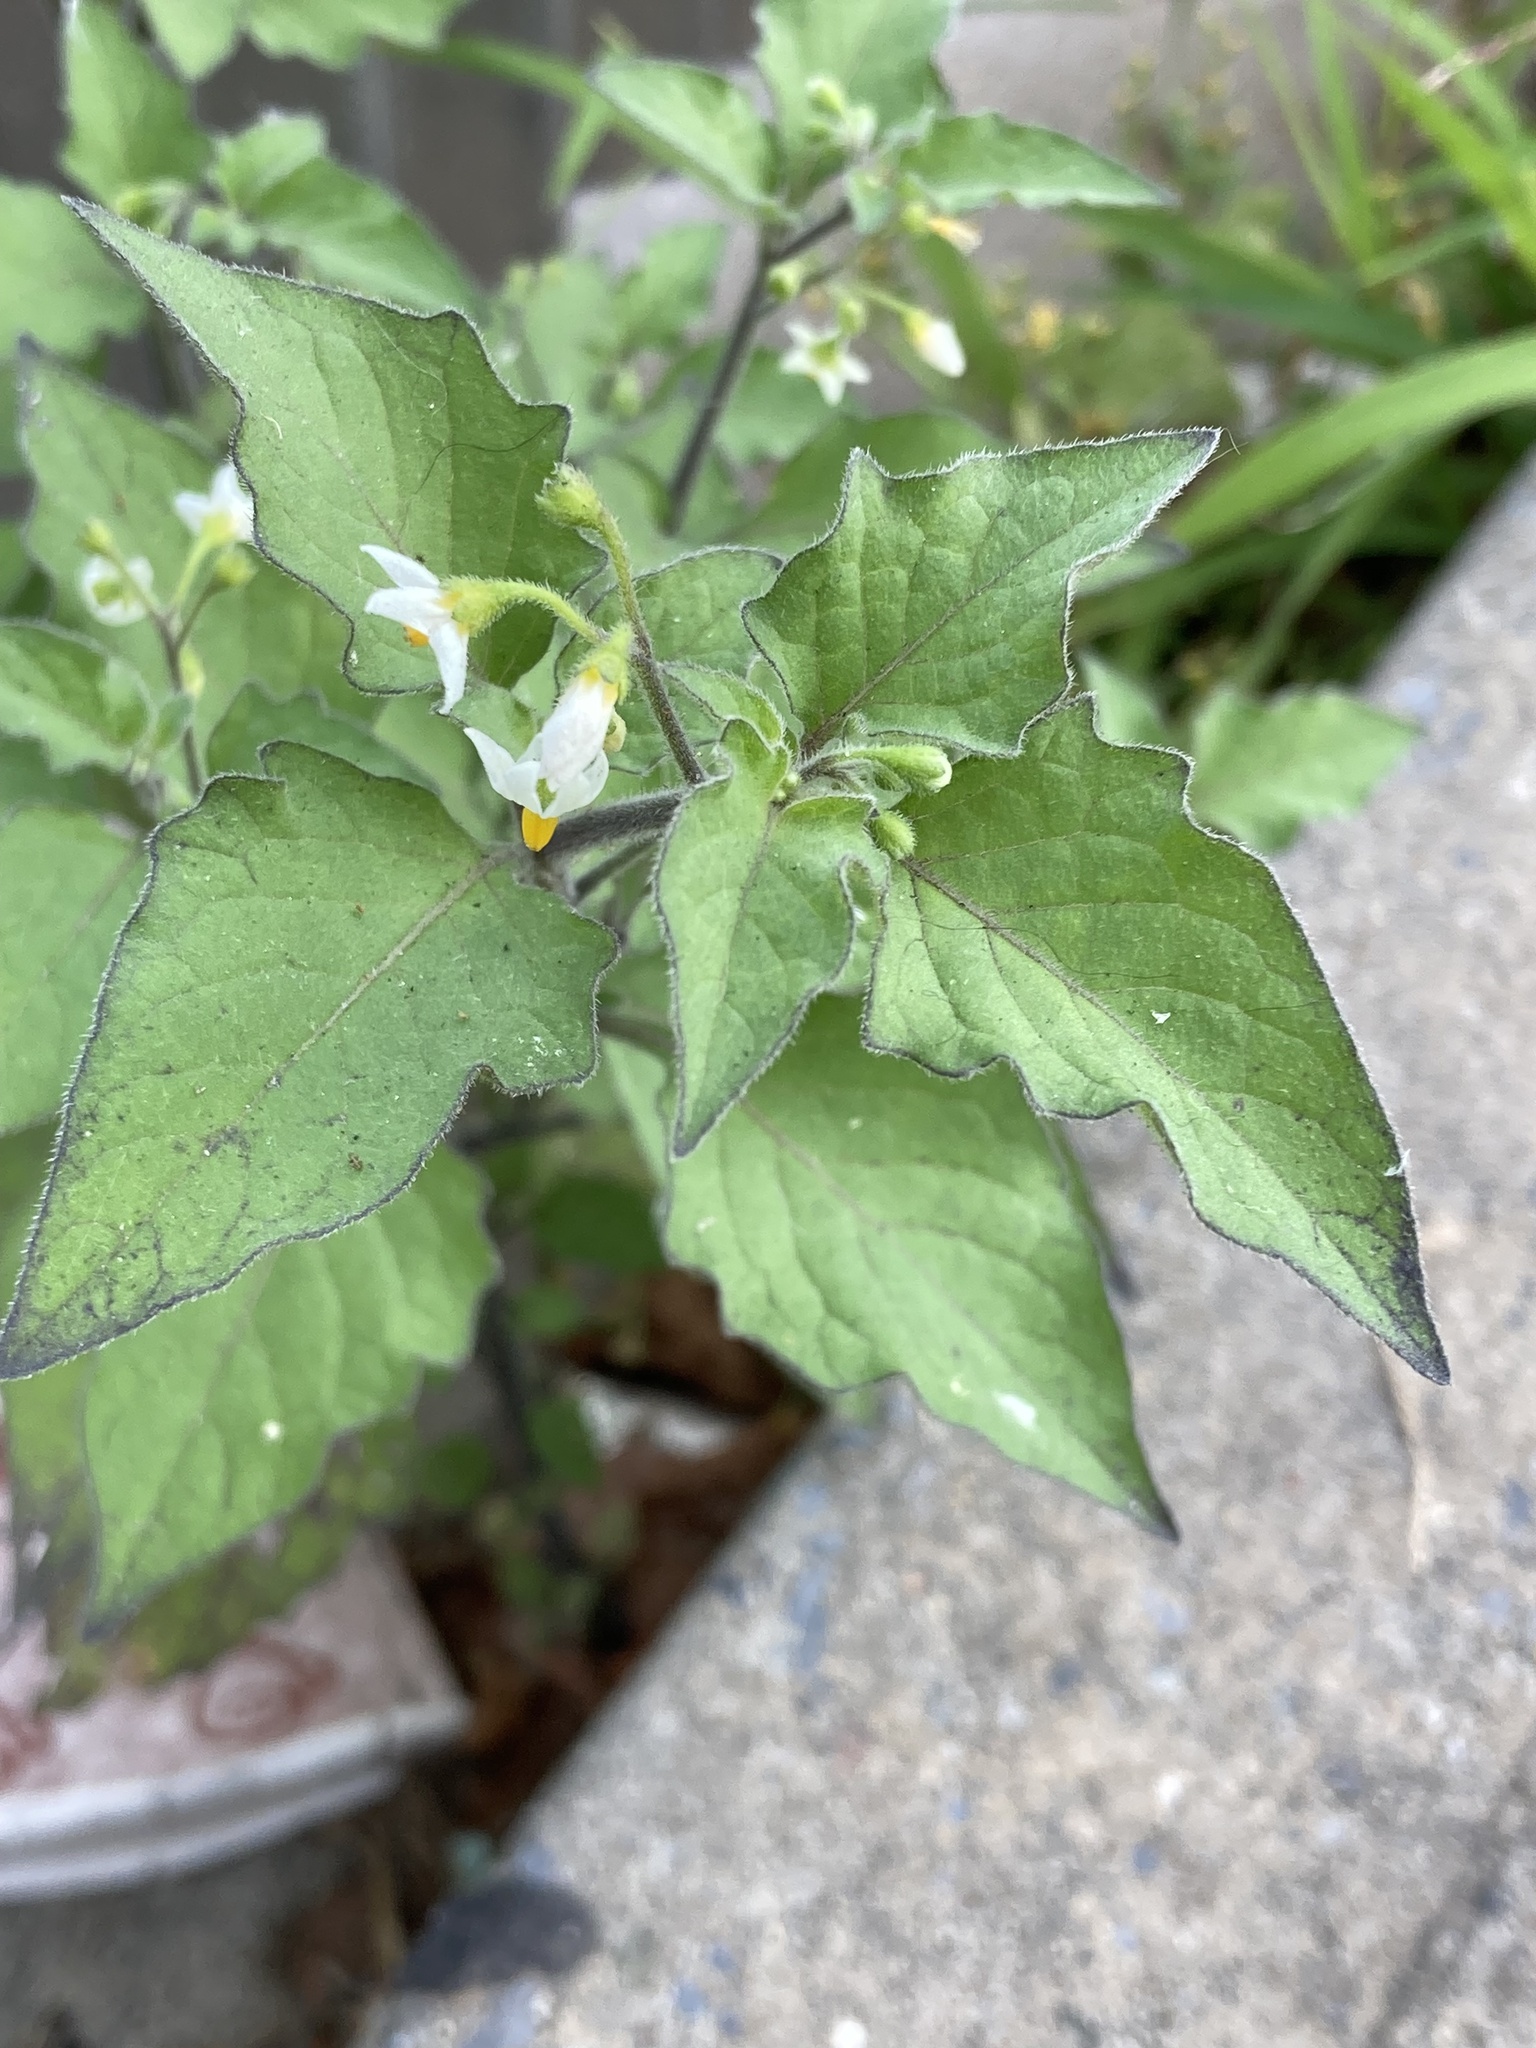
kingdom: Plantae
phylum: Tracheophyta
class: Magnoliopsida
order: Solanales
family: Solanaceae
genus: Solanum
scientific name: Solanum nigrum
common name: Black nightshade
